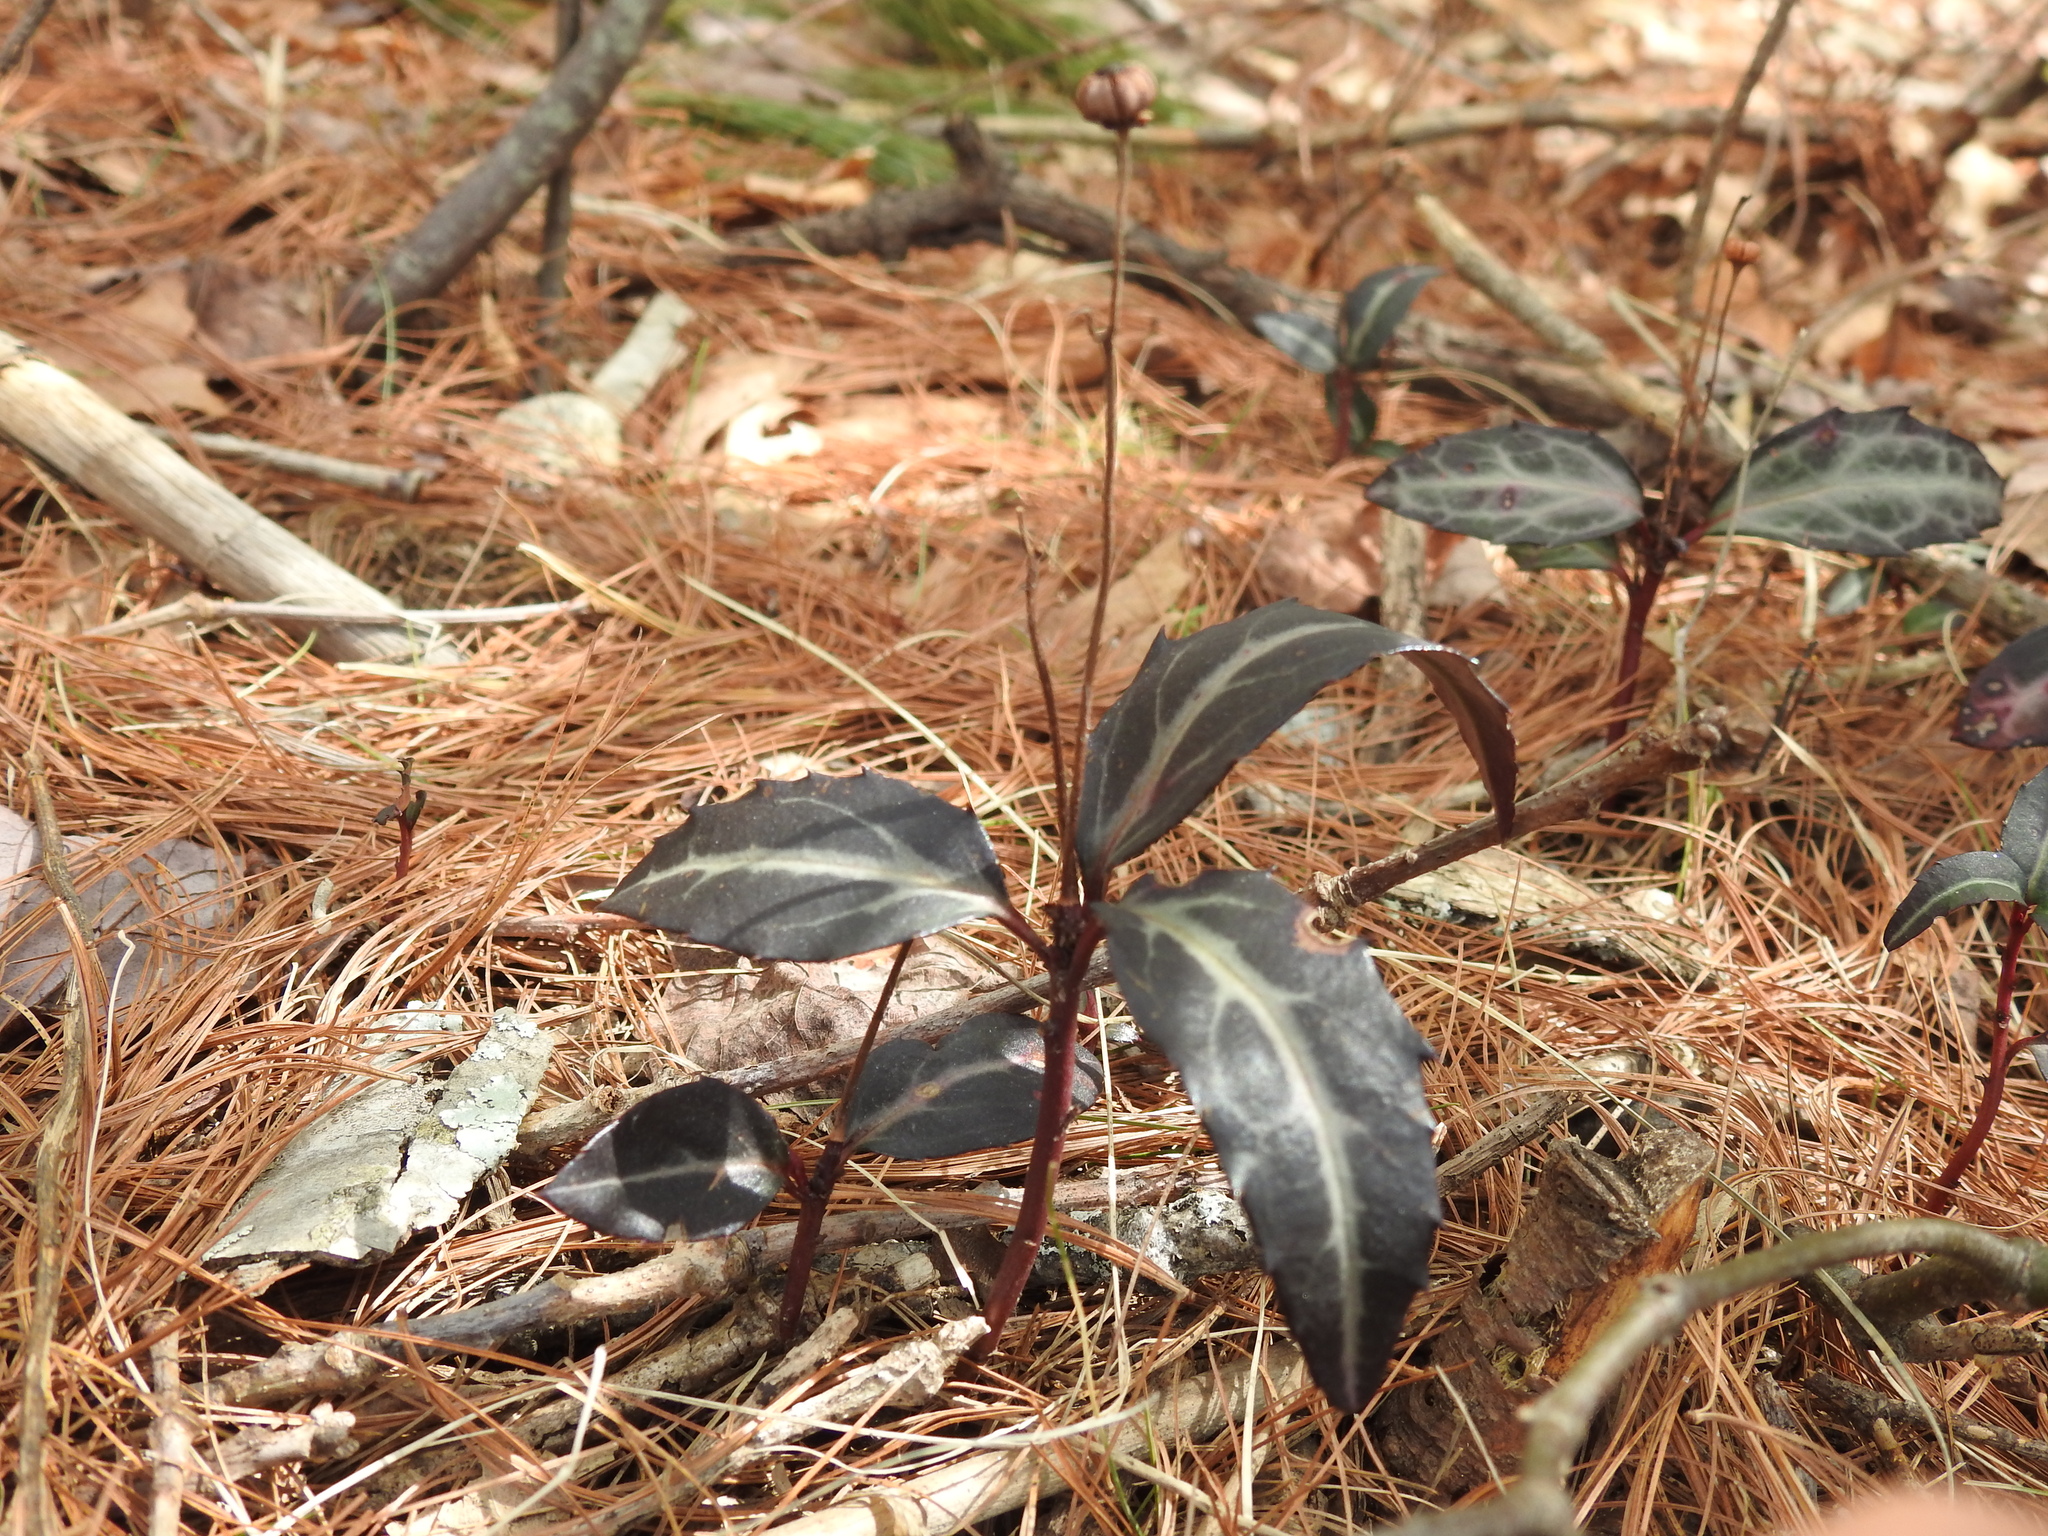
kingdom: Plantae
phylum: Tracheophyta
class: Magnoliopsida
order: Ericales
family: Ericaceae
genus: Chimaphila
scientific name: Chimaphila maculata
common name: Spotted pipsissewa
